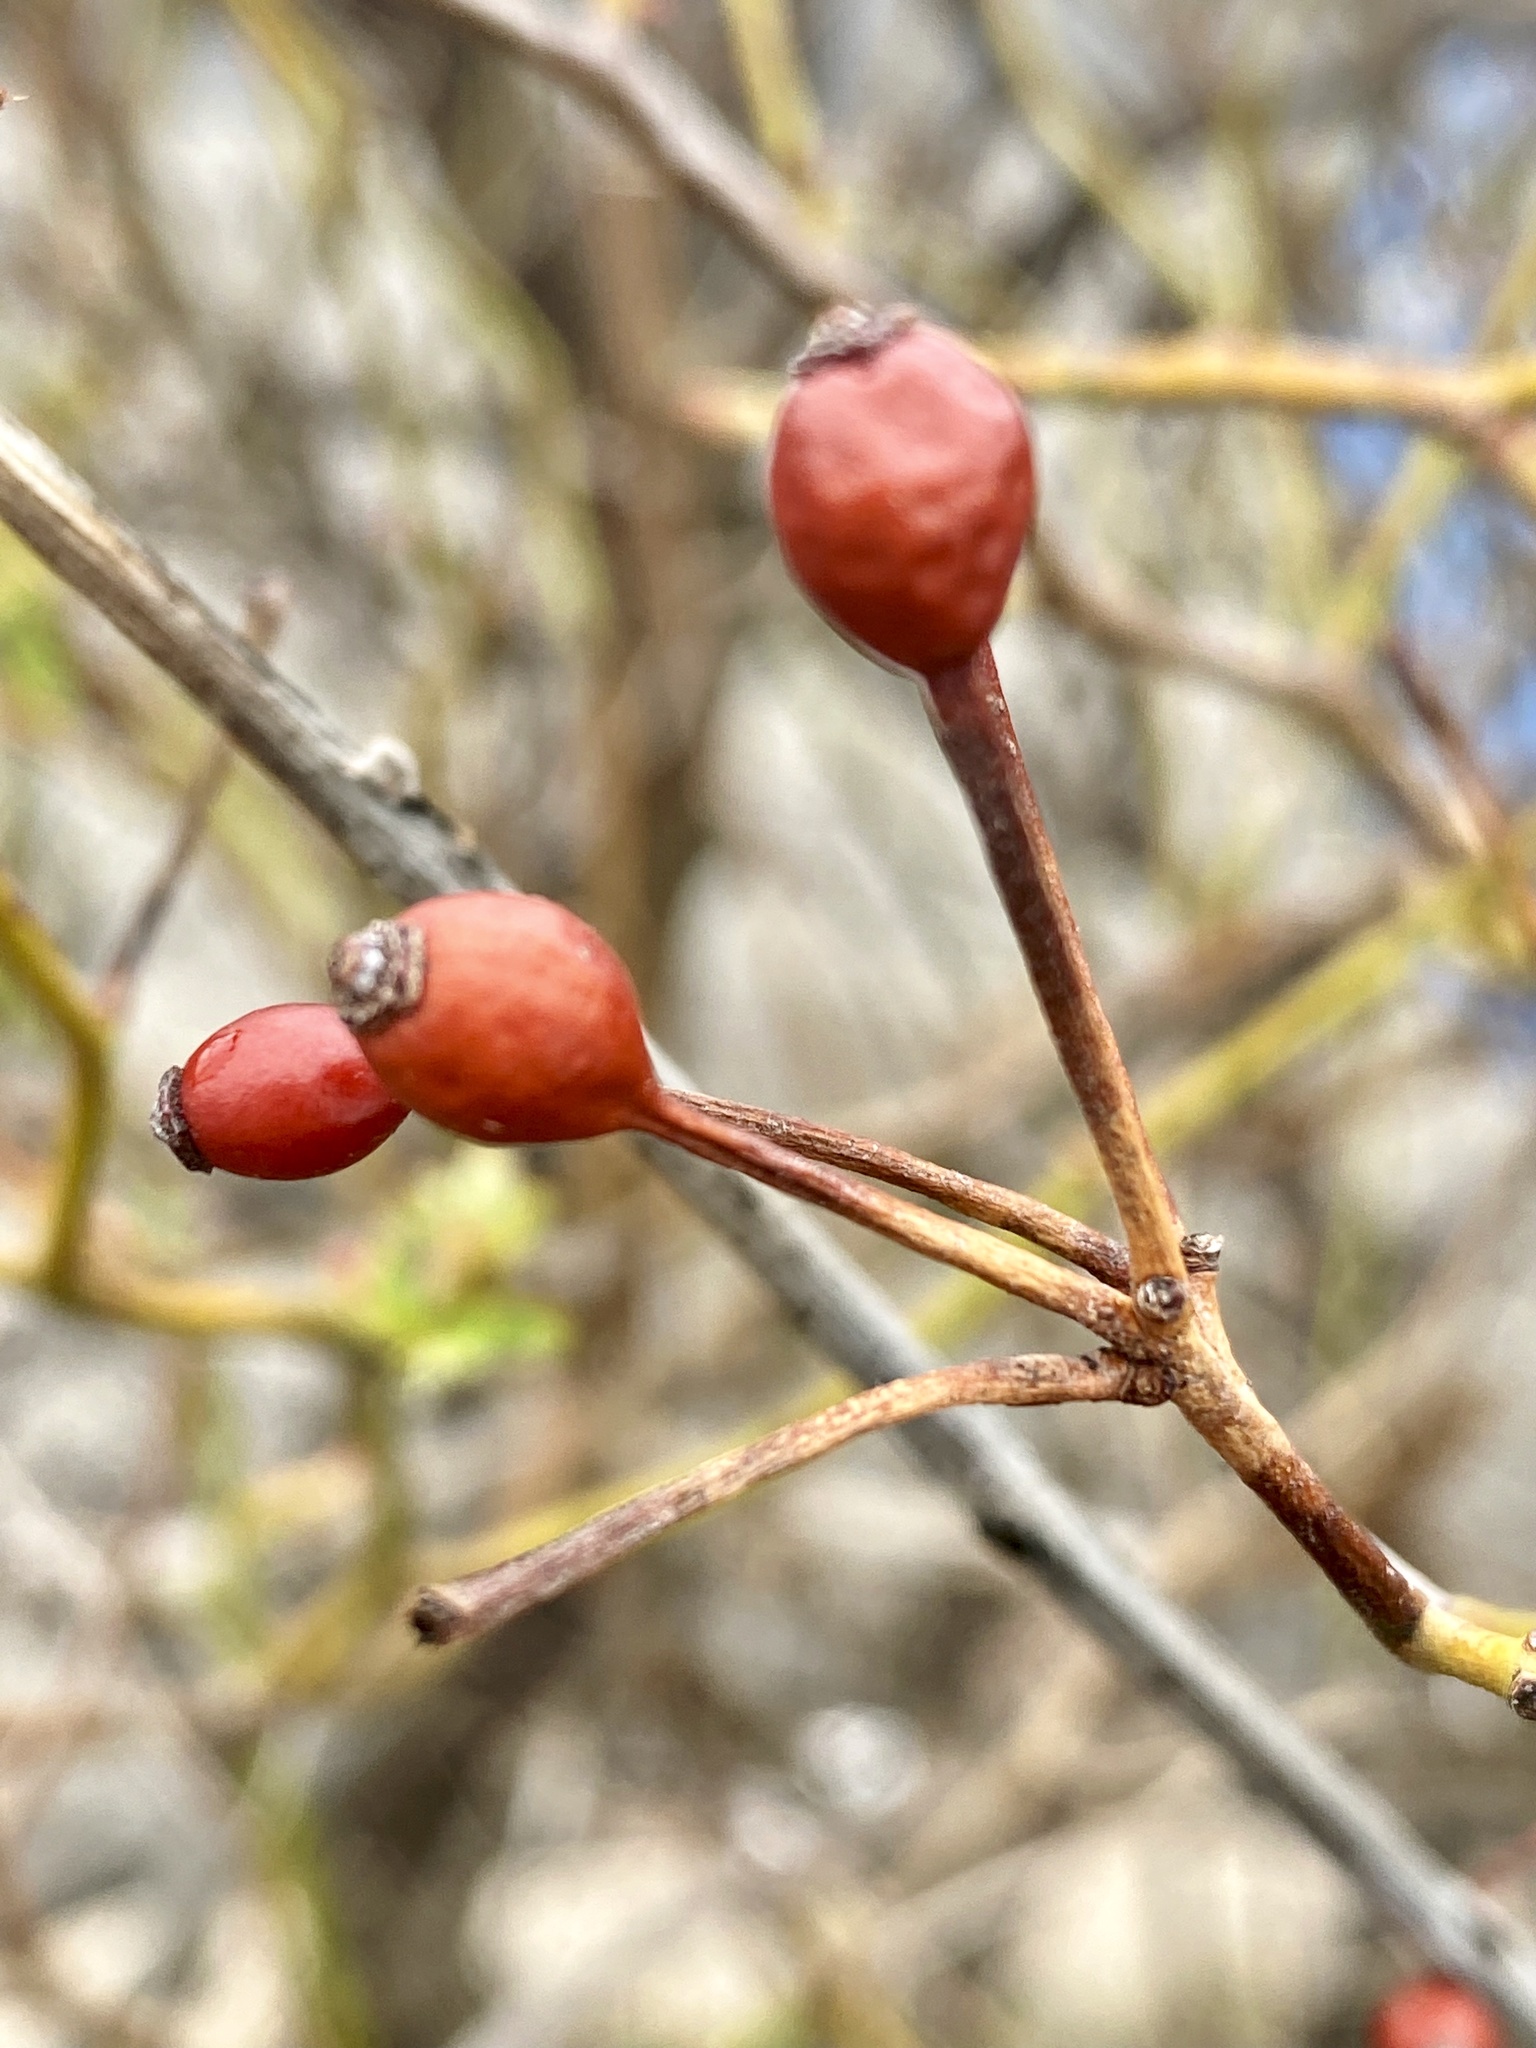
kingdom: Plantae
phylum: Tracheophyta
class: Magnoliopsida
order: Rosales
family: Rosaceae
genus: Rosa
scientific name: Rosa multiflora
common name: Multiflora rose
